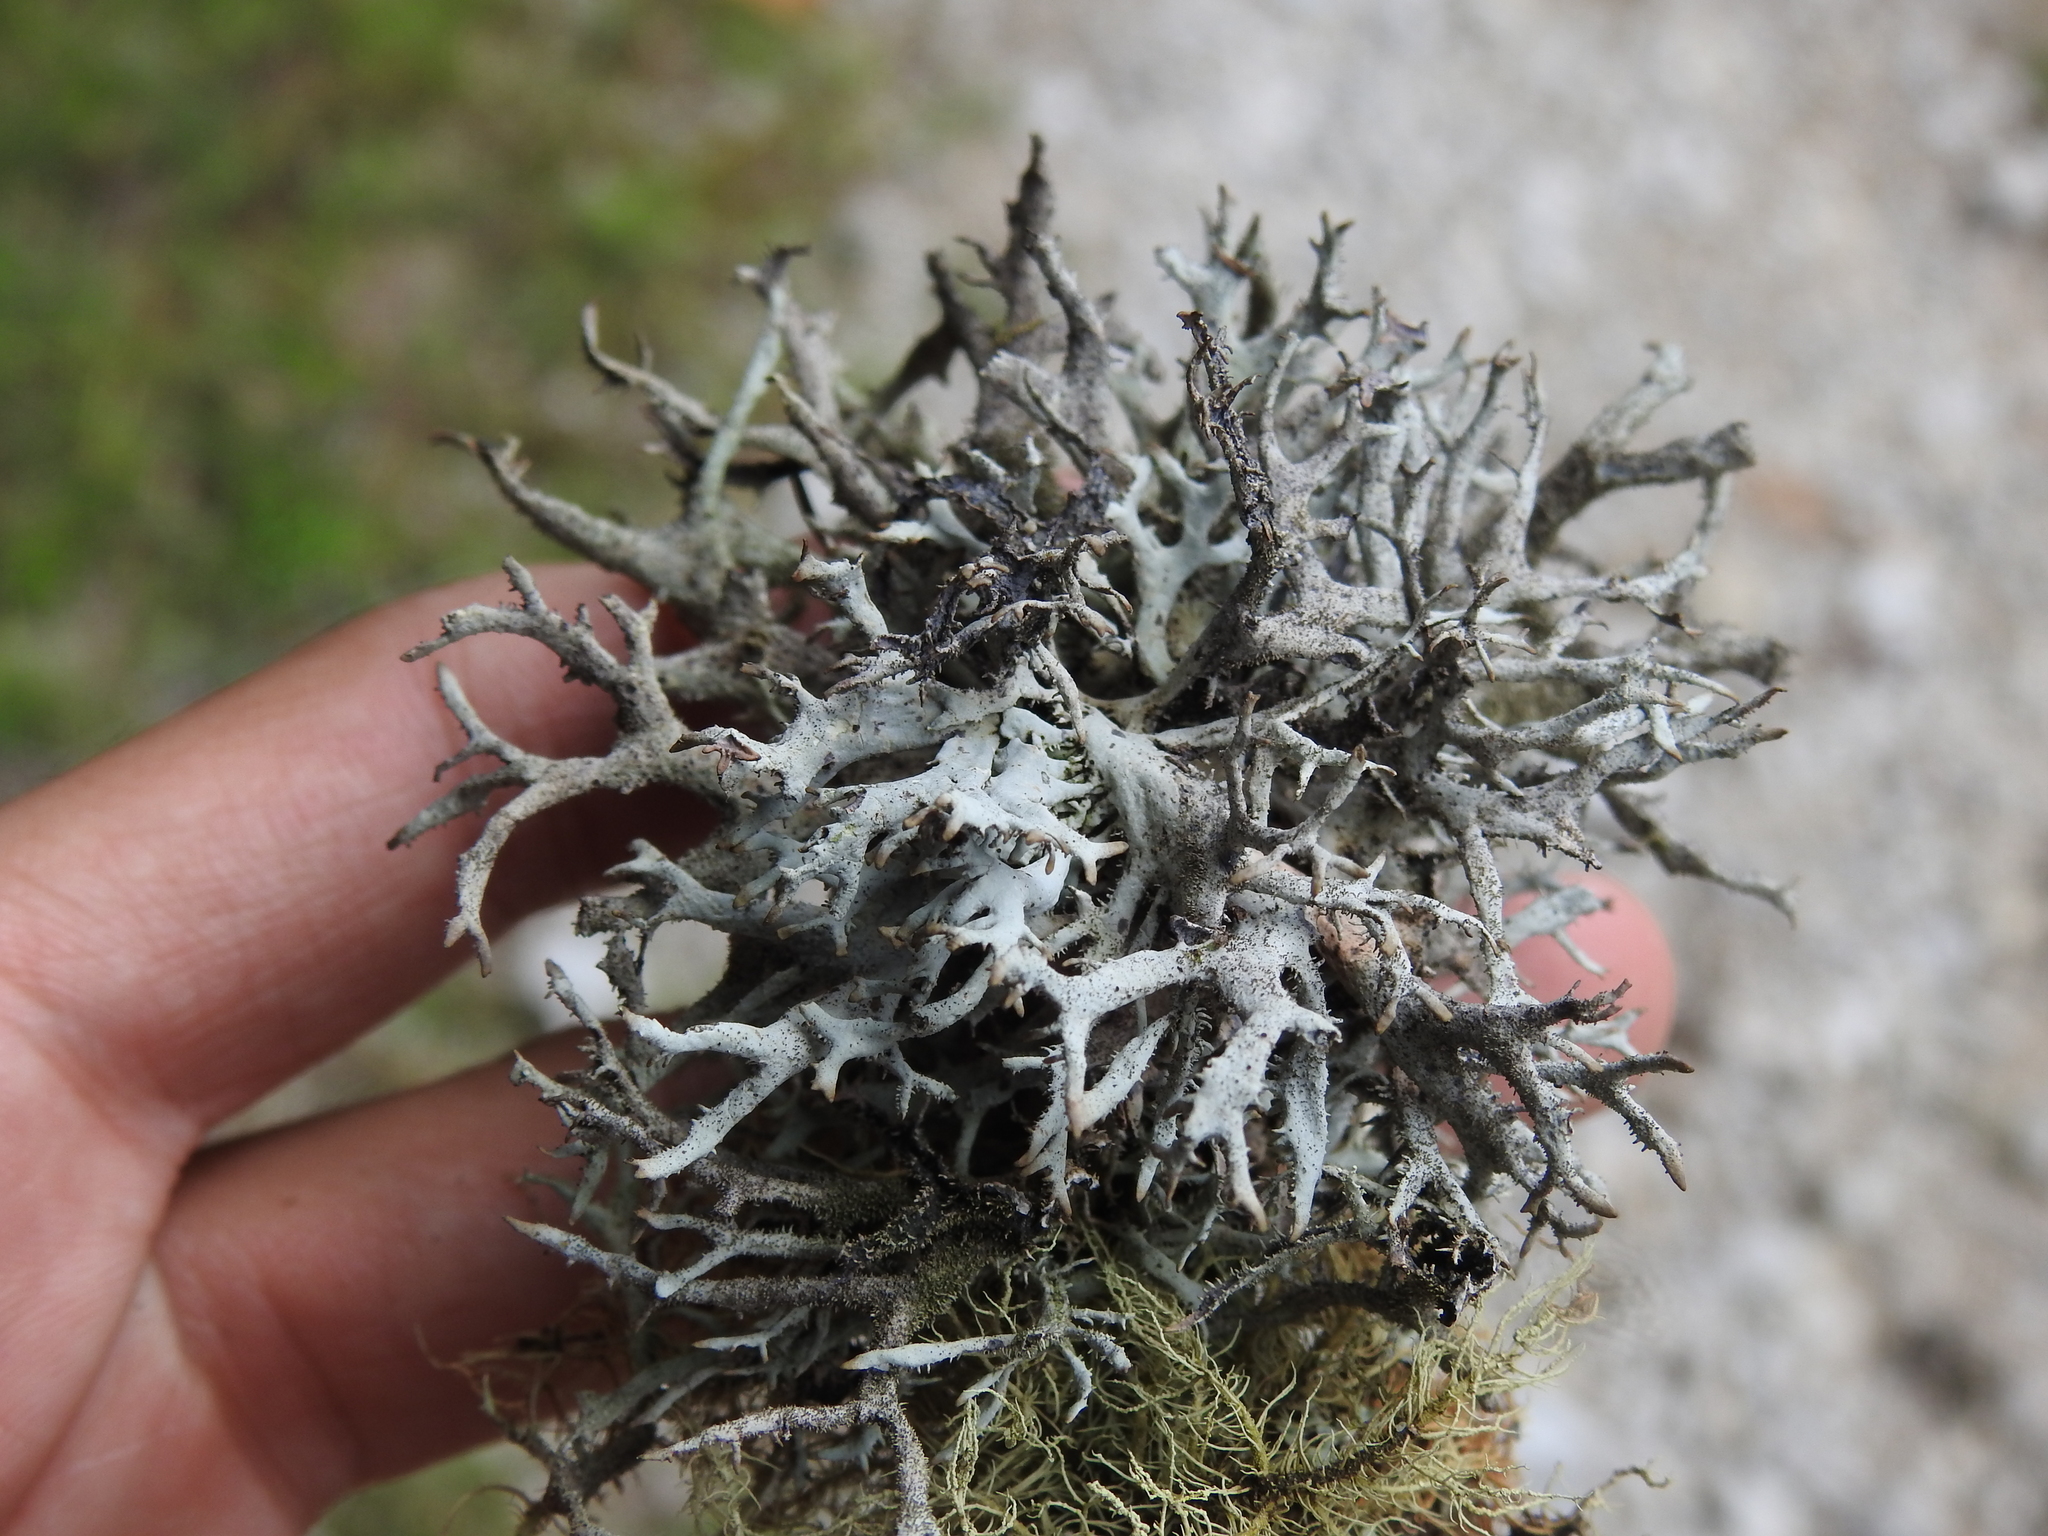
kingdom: Fungi
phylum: Ascomycota
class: Lecanoromycetes
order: Lecanorales
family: Parmeliaceae
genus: Pseudevernia
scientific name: Pseudevernia furfuracea
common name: Tree moss
